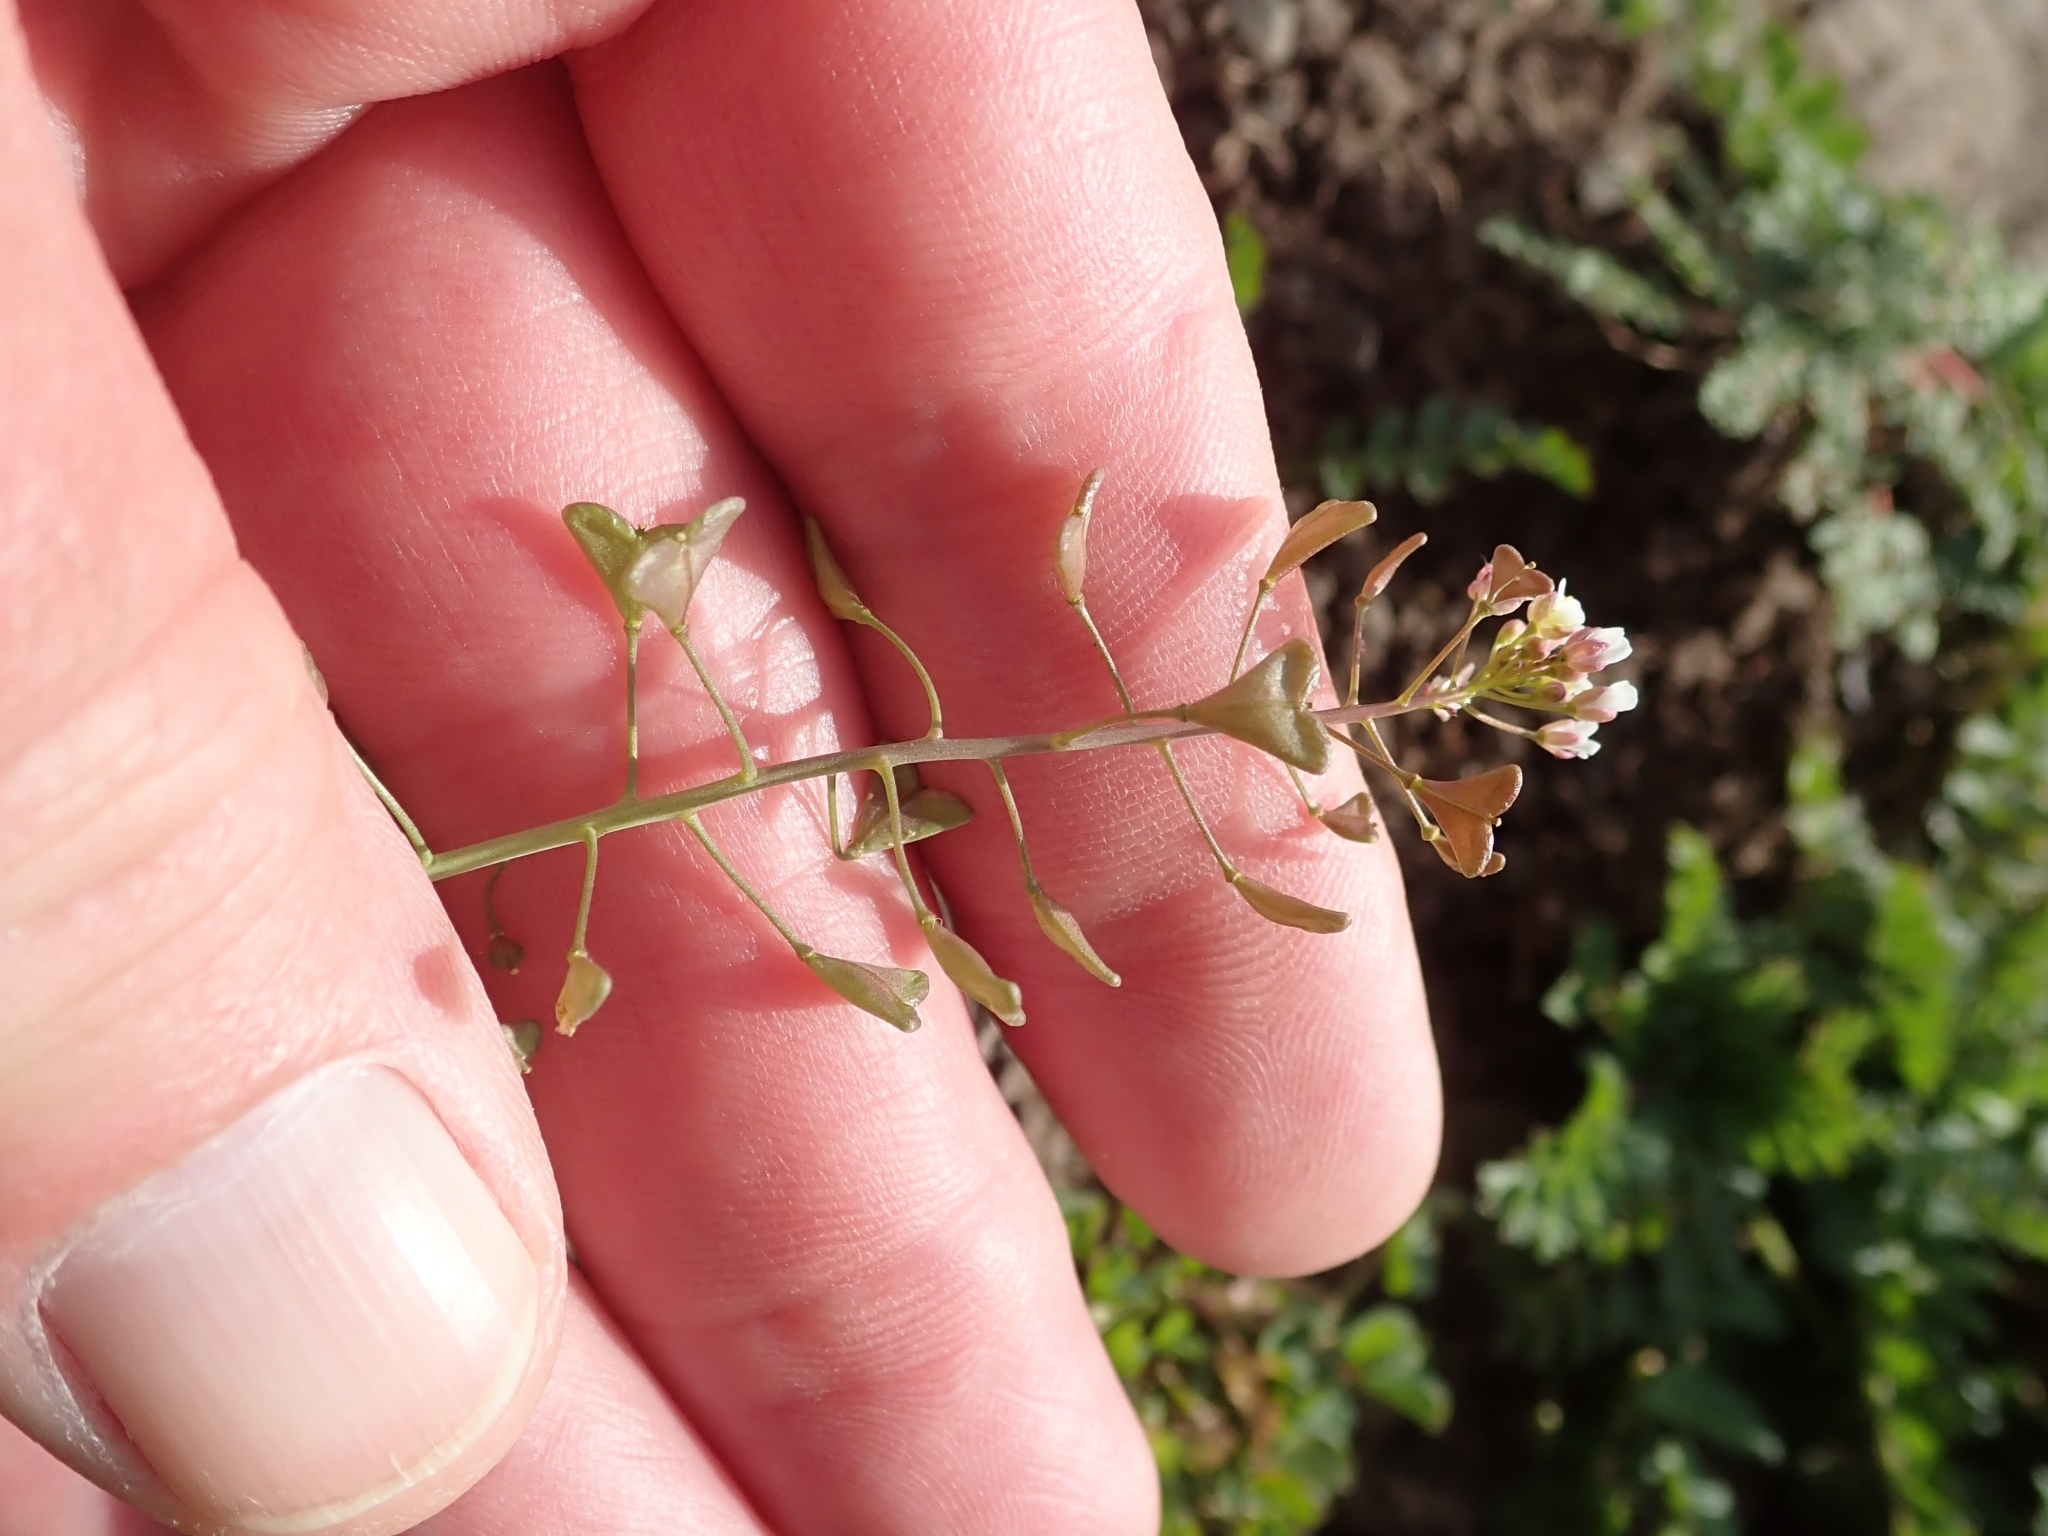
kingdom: Plantae
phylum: Tracheophyta
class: Magnoliopsida
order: Brassicales
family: Brassicaceae
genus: Capsella
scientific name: Capsella bursa-pastoris
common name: Shepherd's purse
